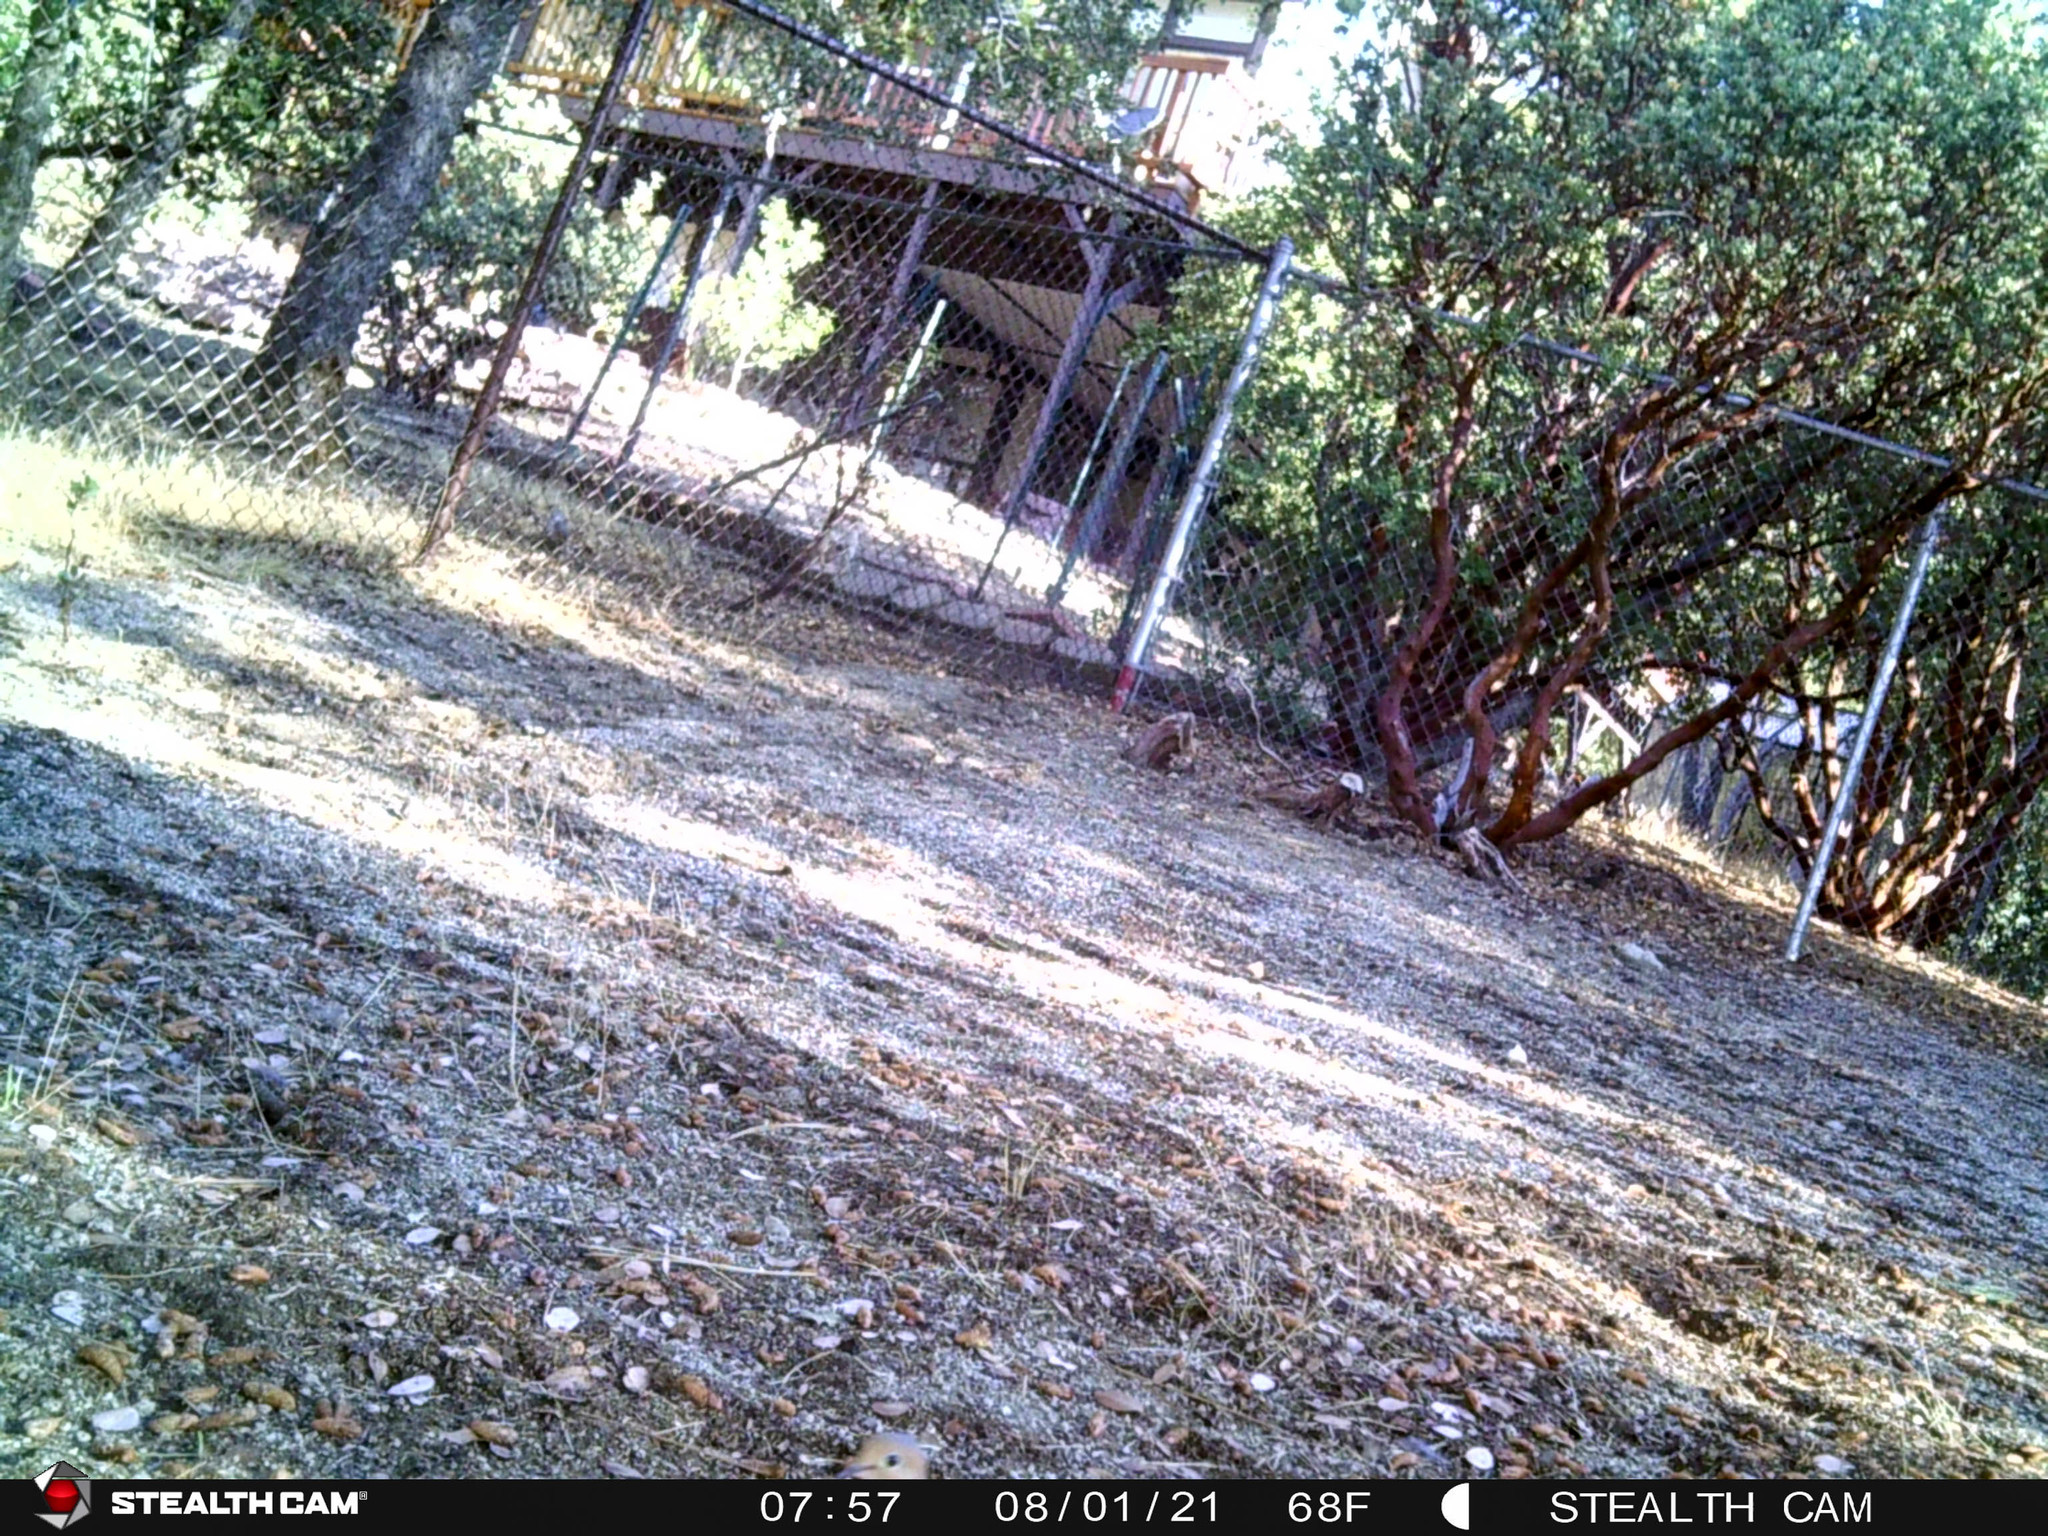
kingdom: Animalia
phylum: Chordata
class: Aves
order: Columbiformes
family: Columbidae
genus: Zenaida
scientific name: Zenaida macroura
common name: Mourning dove
